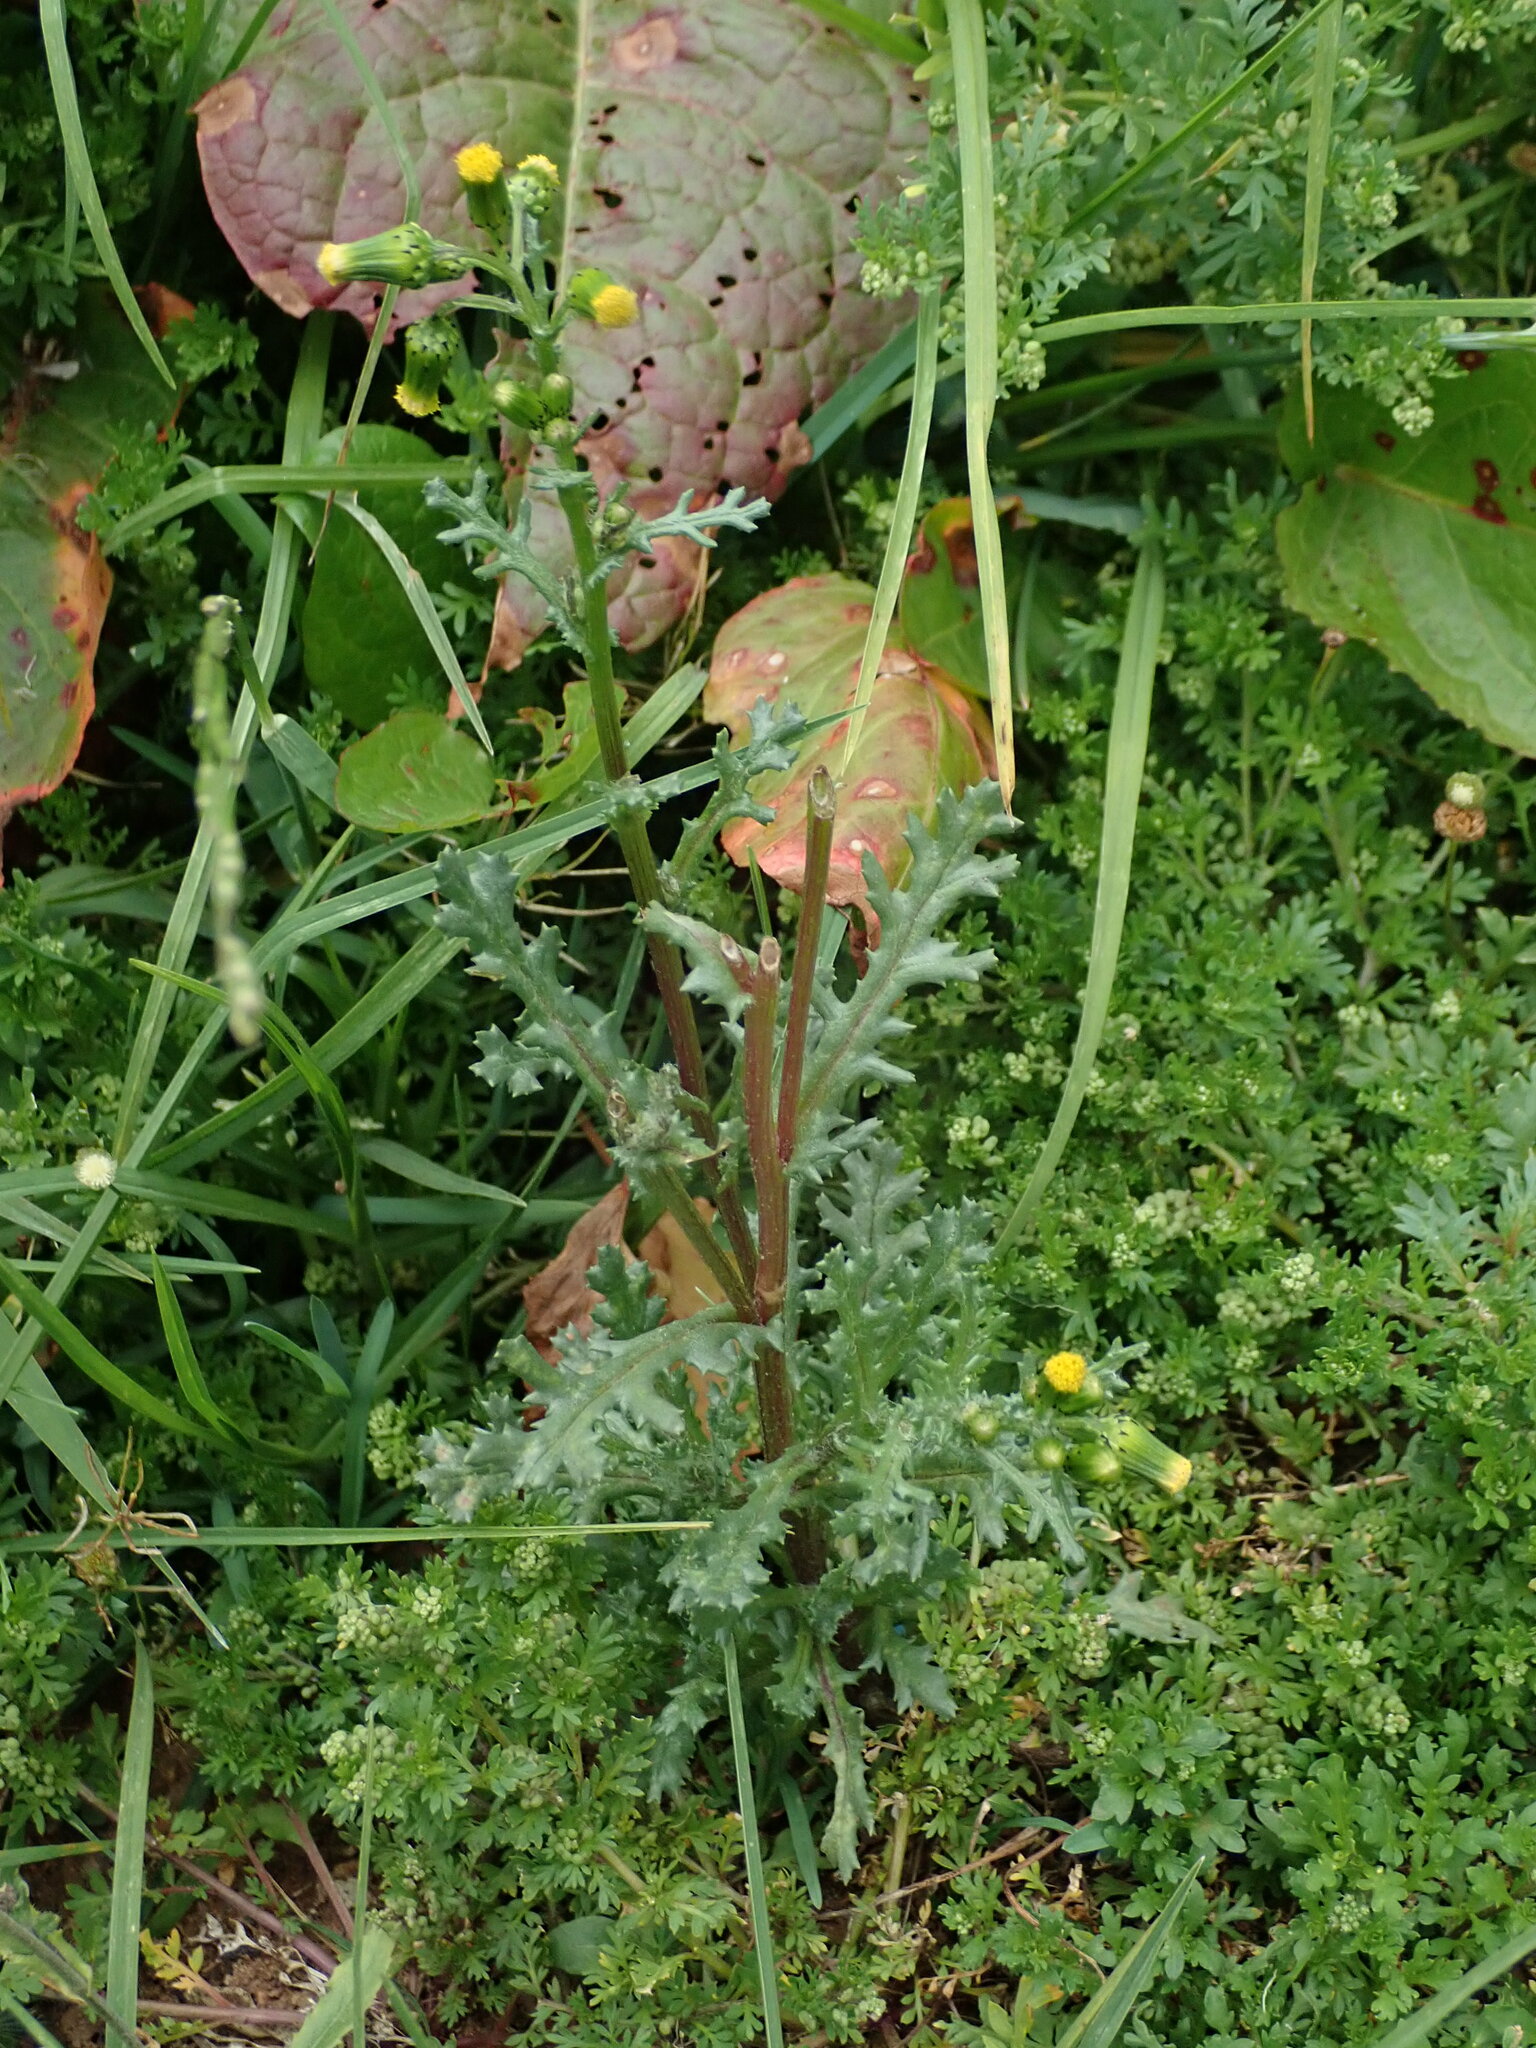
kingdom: Plantae
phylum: Tracheophyta
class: Magnoliopsida
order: Asterales
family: Asteraceae
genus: Senecio
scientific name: Senecio vulgaris
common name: Old-man-in-the-spring
